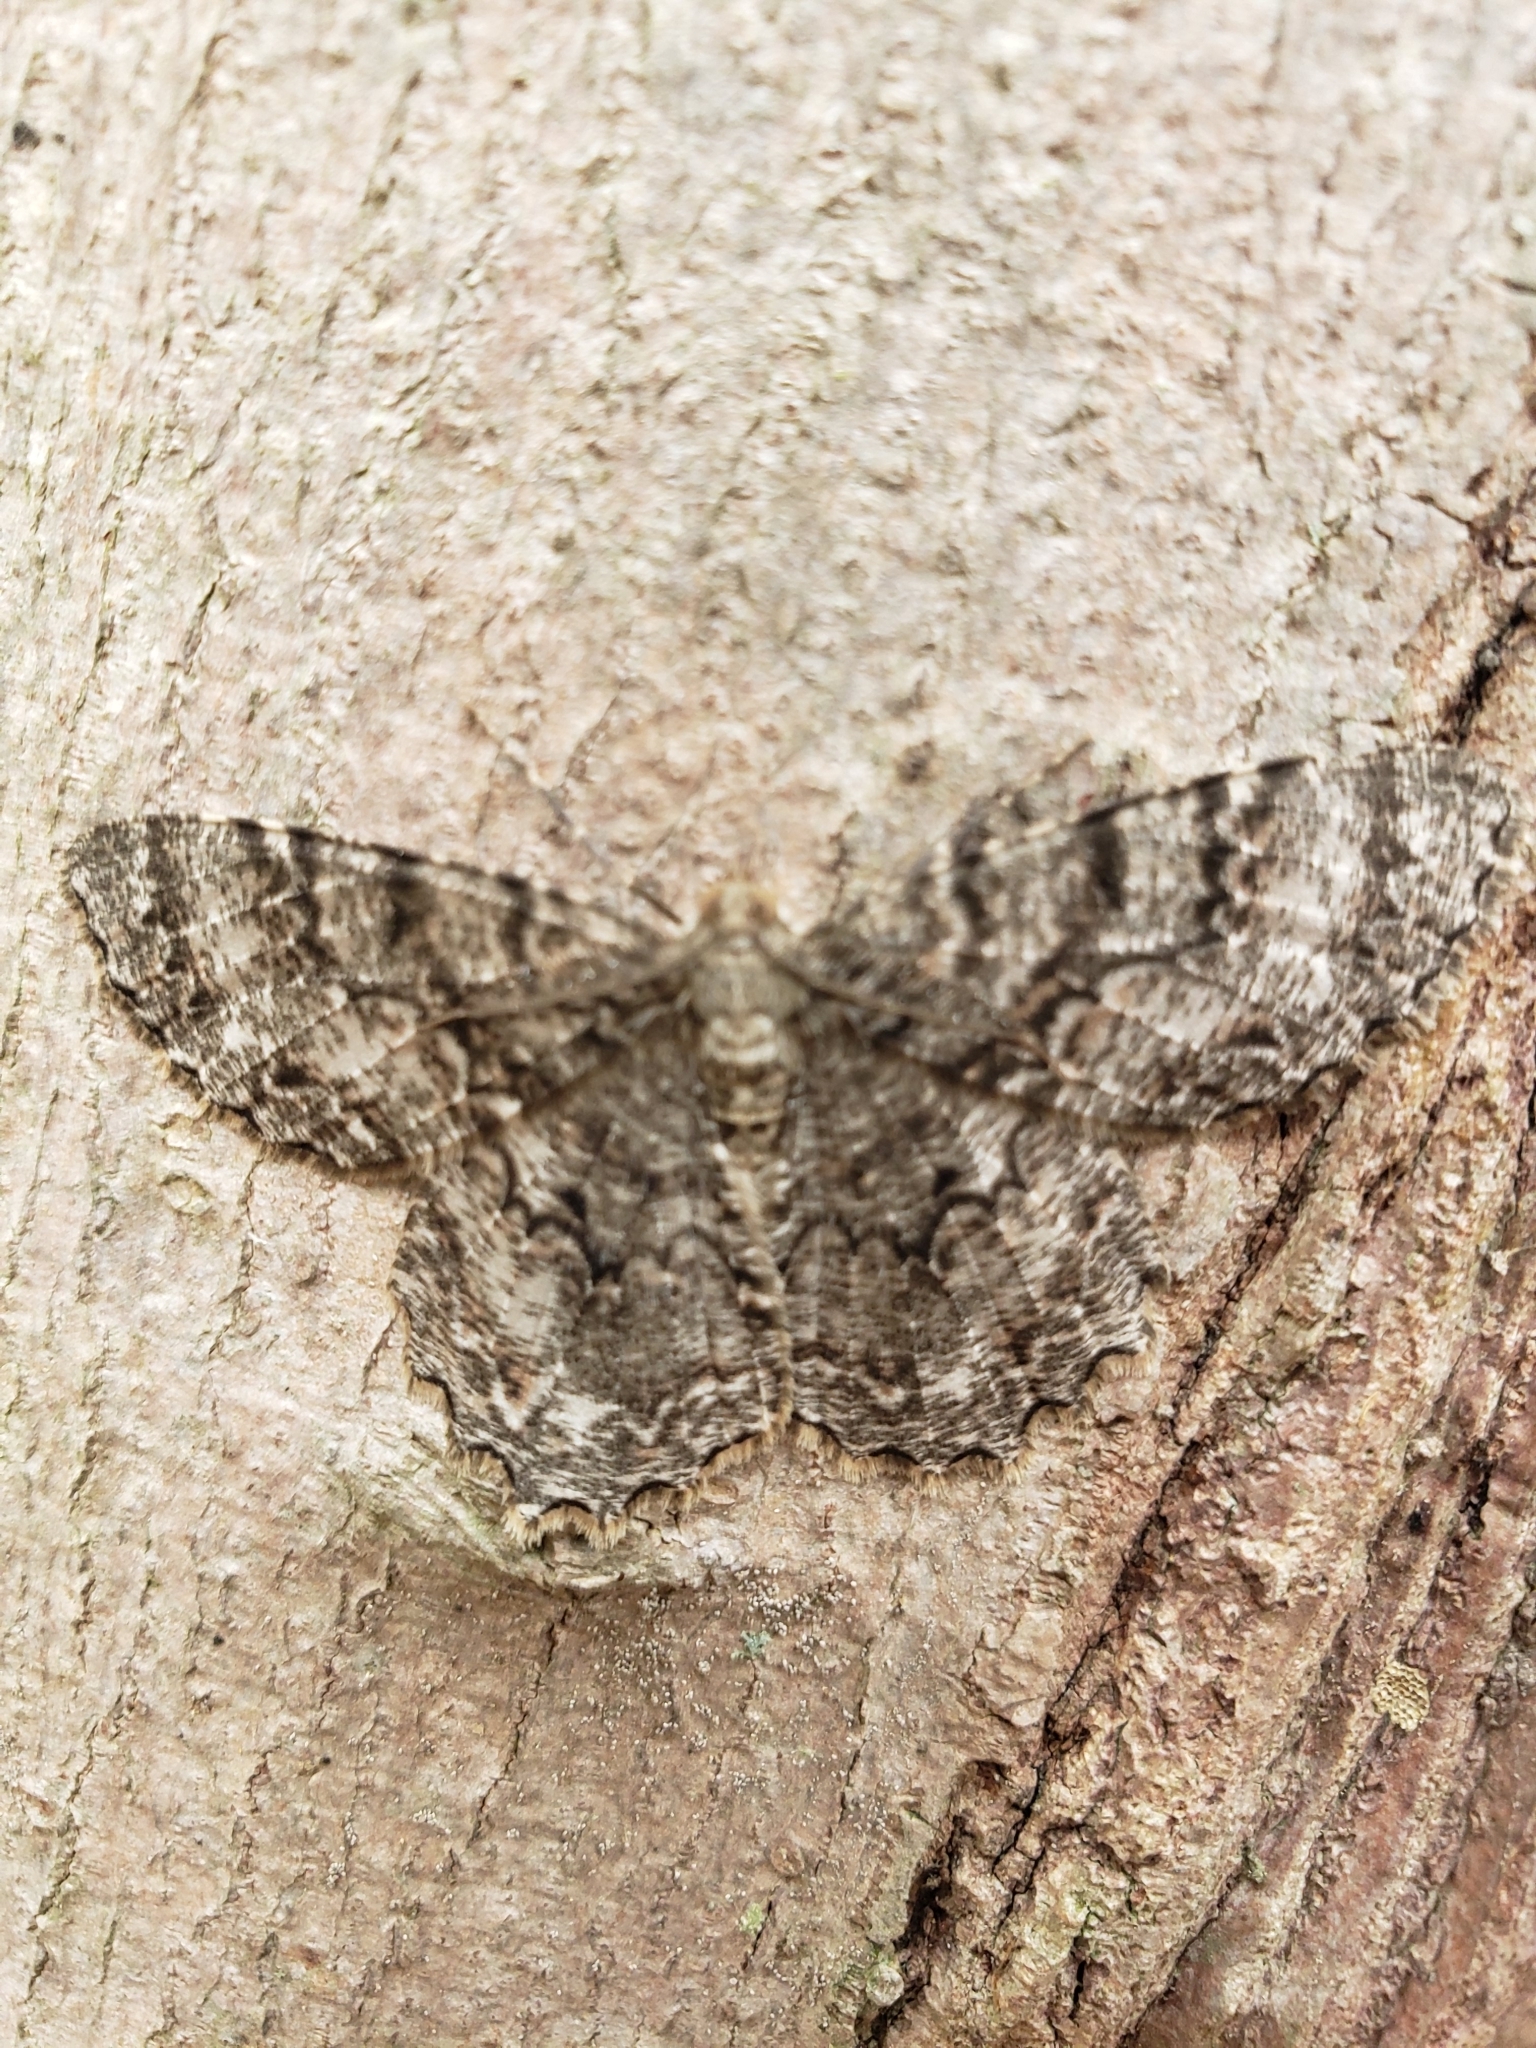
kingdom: Animalia
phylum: Arthropoda
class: Insecta
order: Lepidoptera
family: Geometridae
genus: Epimecis
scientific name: Epimecis hortaria
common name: Tulip-tree beauty
